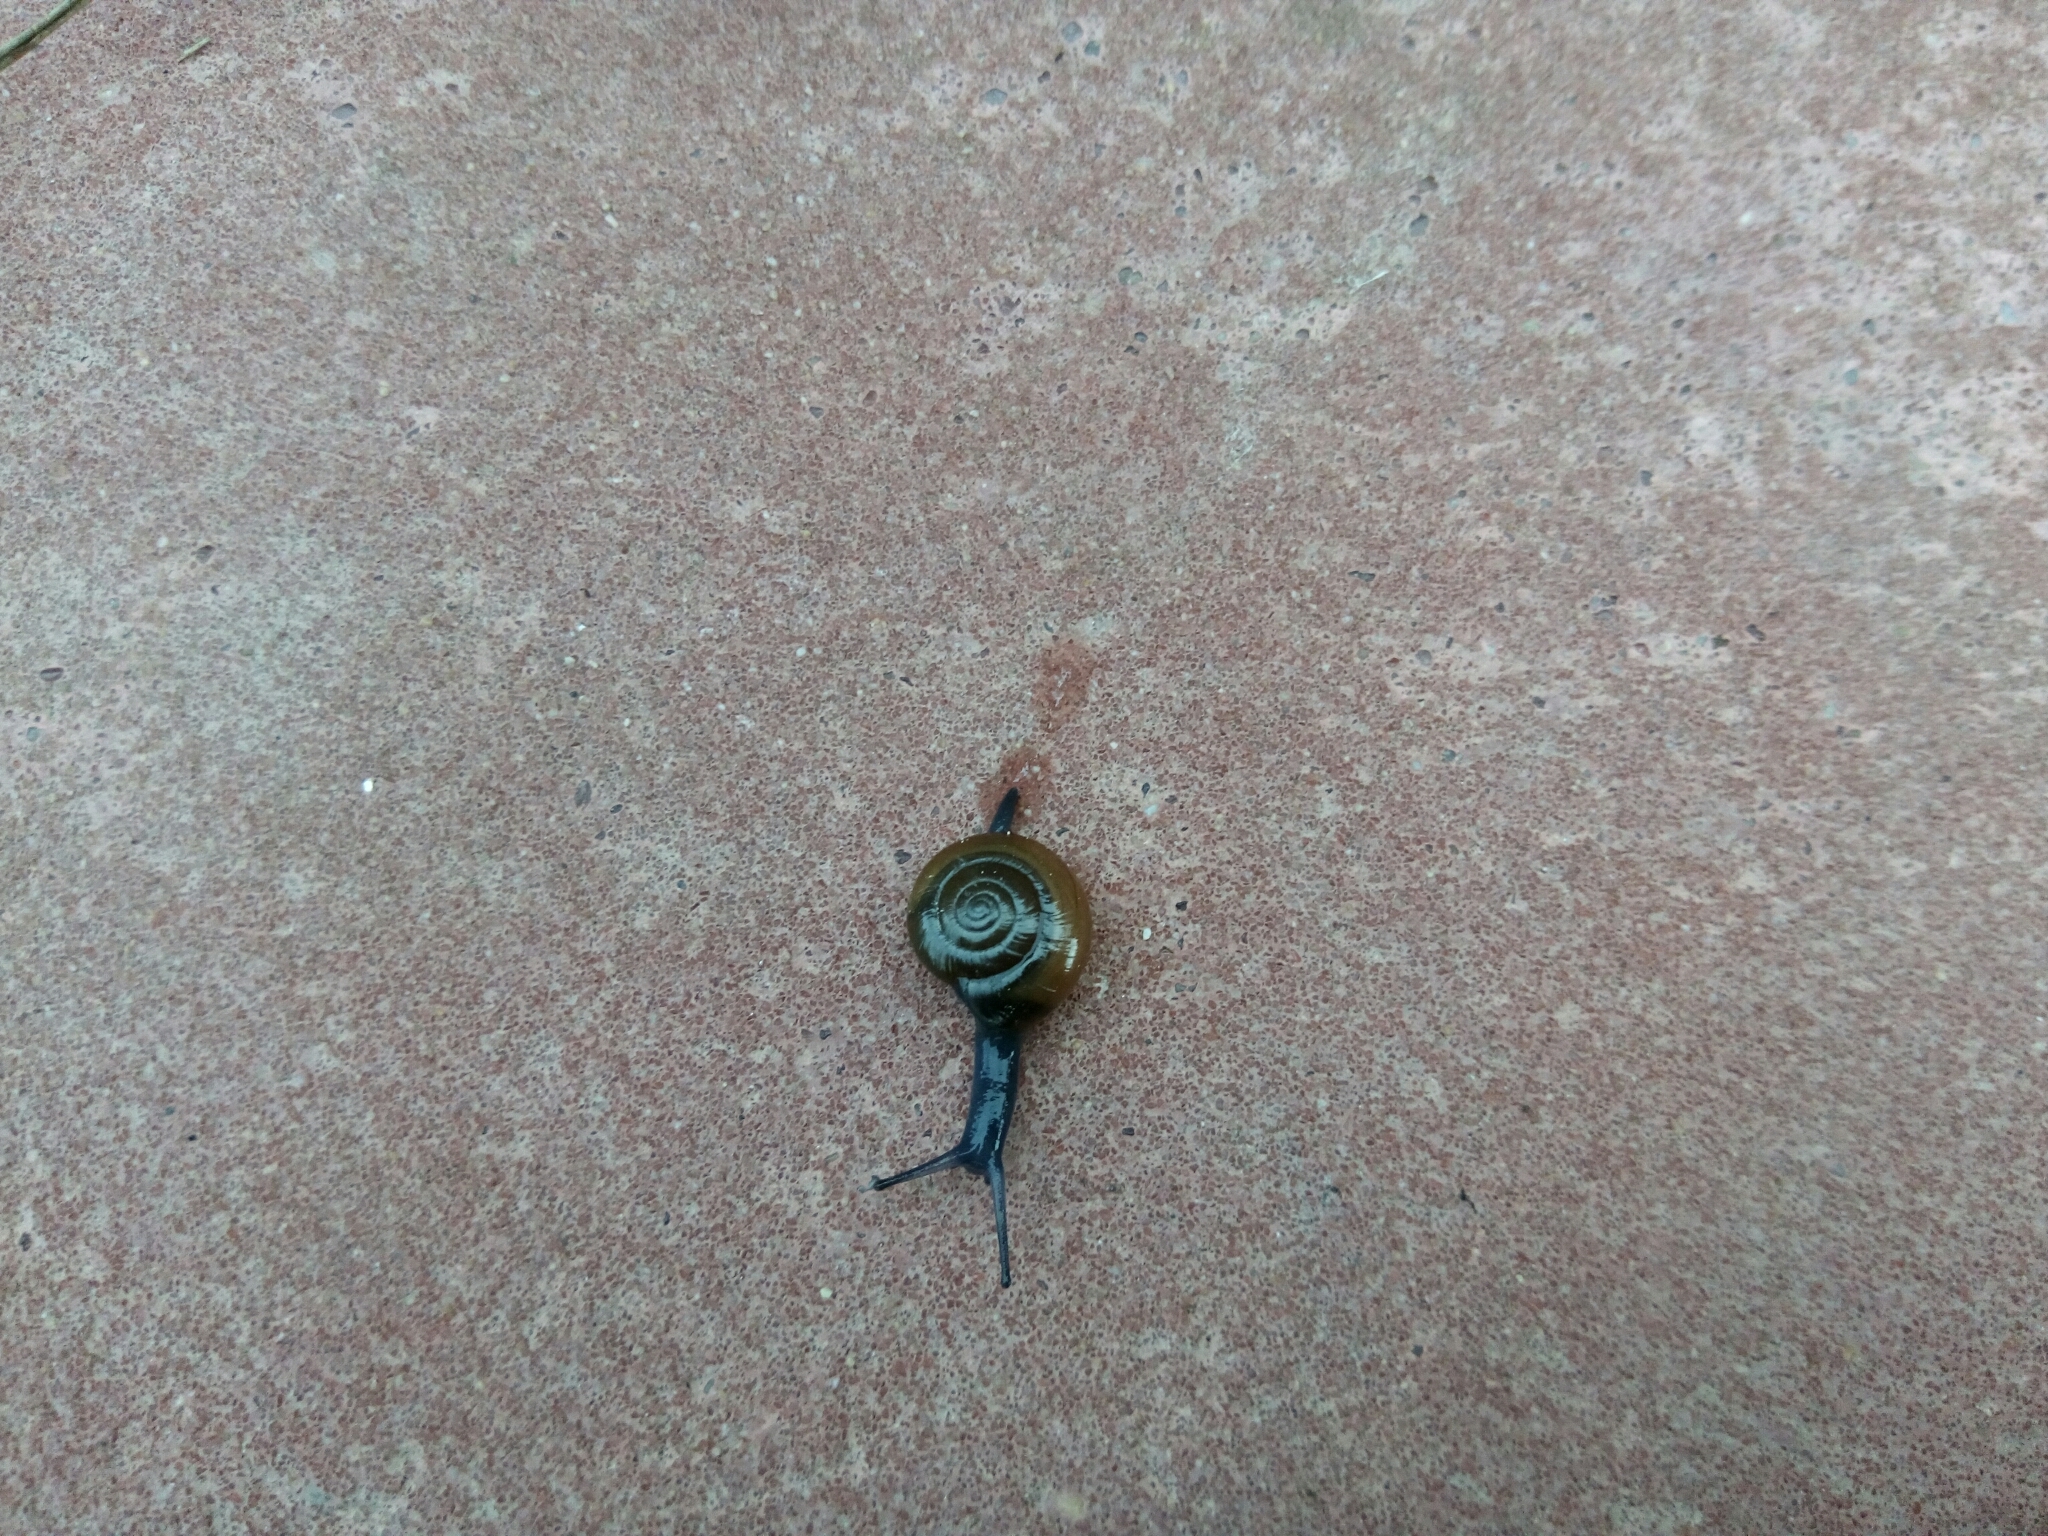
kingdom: Animalia
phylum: Mollusca
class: Gastropoda
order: Stylommatophora
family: Oxychilidae
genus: Oxychilus
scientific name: Oxychilus draparnaudi
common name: Draparnaud's glass snail
